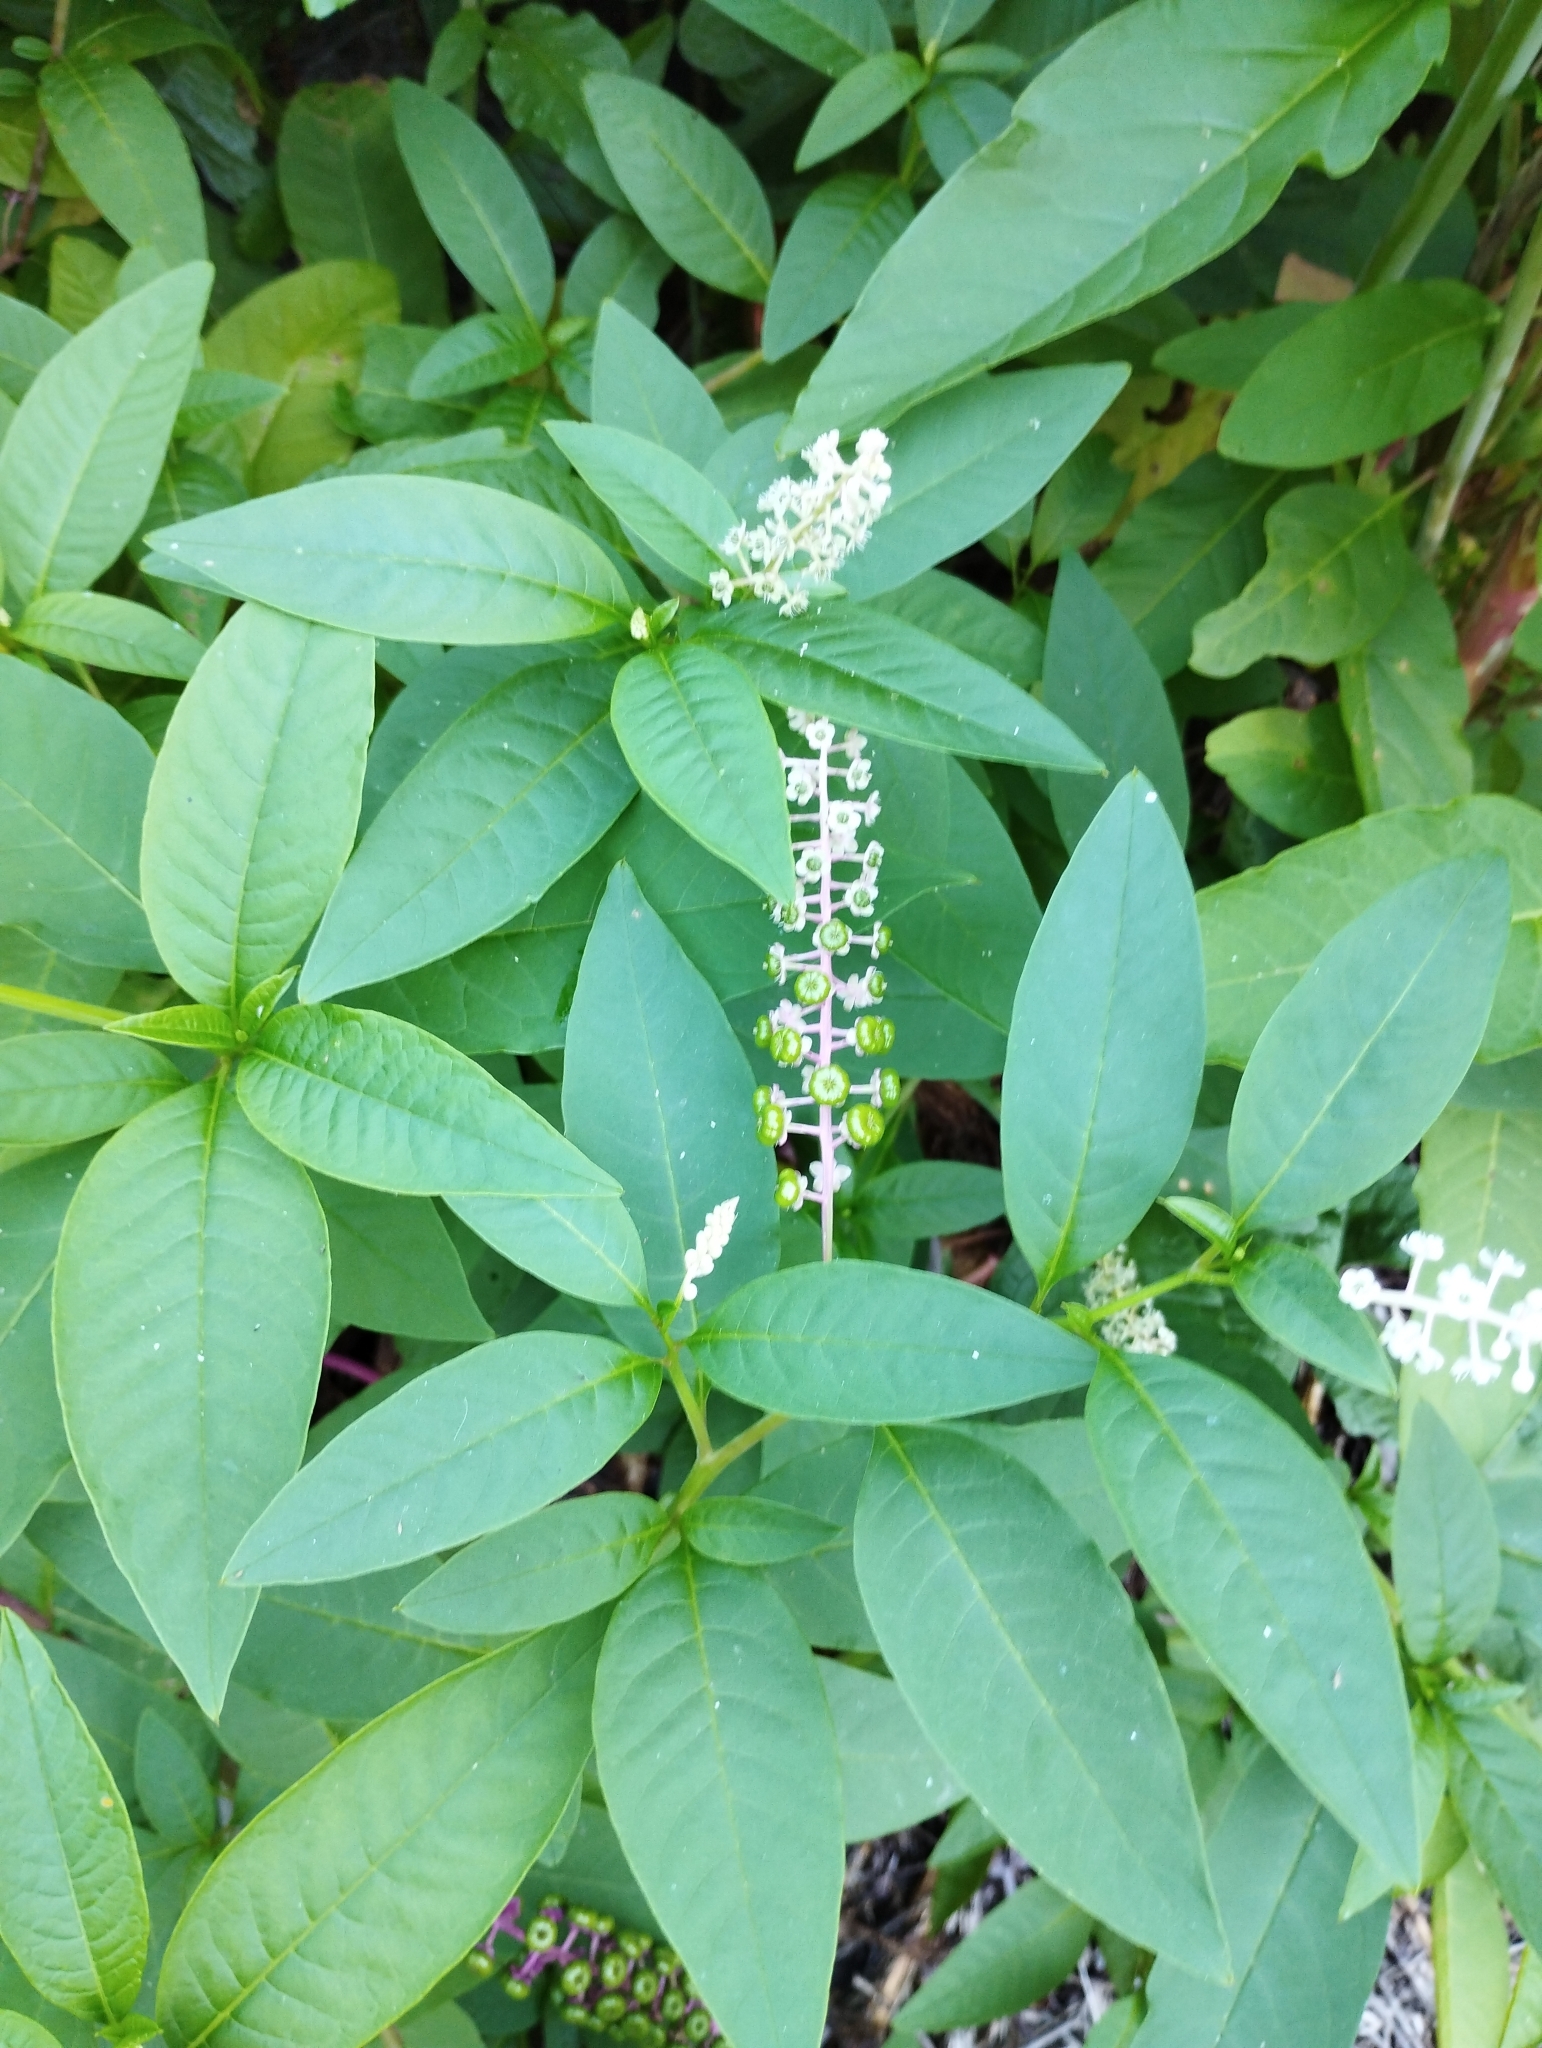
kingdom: Plantae
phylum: Tracheophyta
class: Magnoliopsida
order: Caryophyllales
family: Phytolaccaceae
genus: Phytolacca
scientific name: Phytolacca americana
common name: American pokeweed
